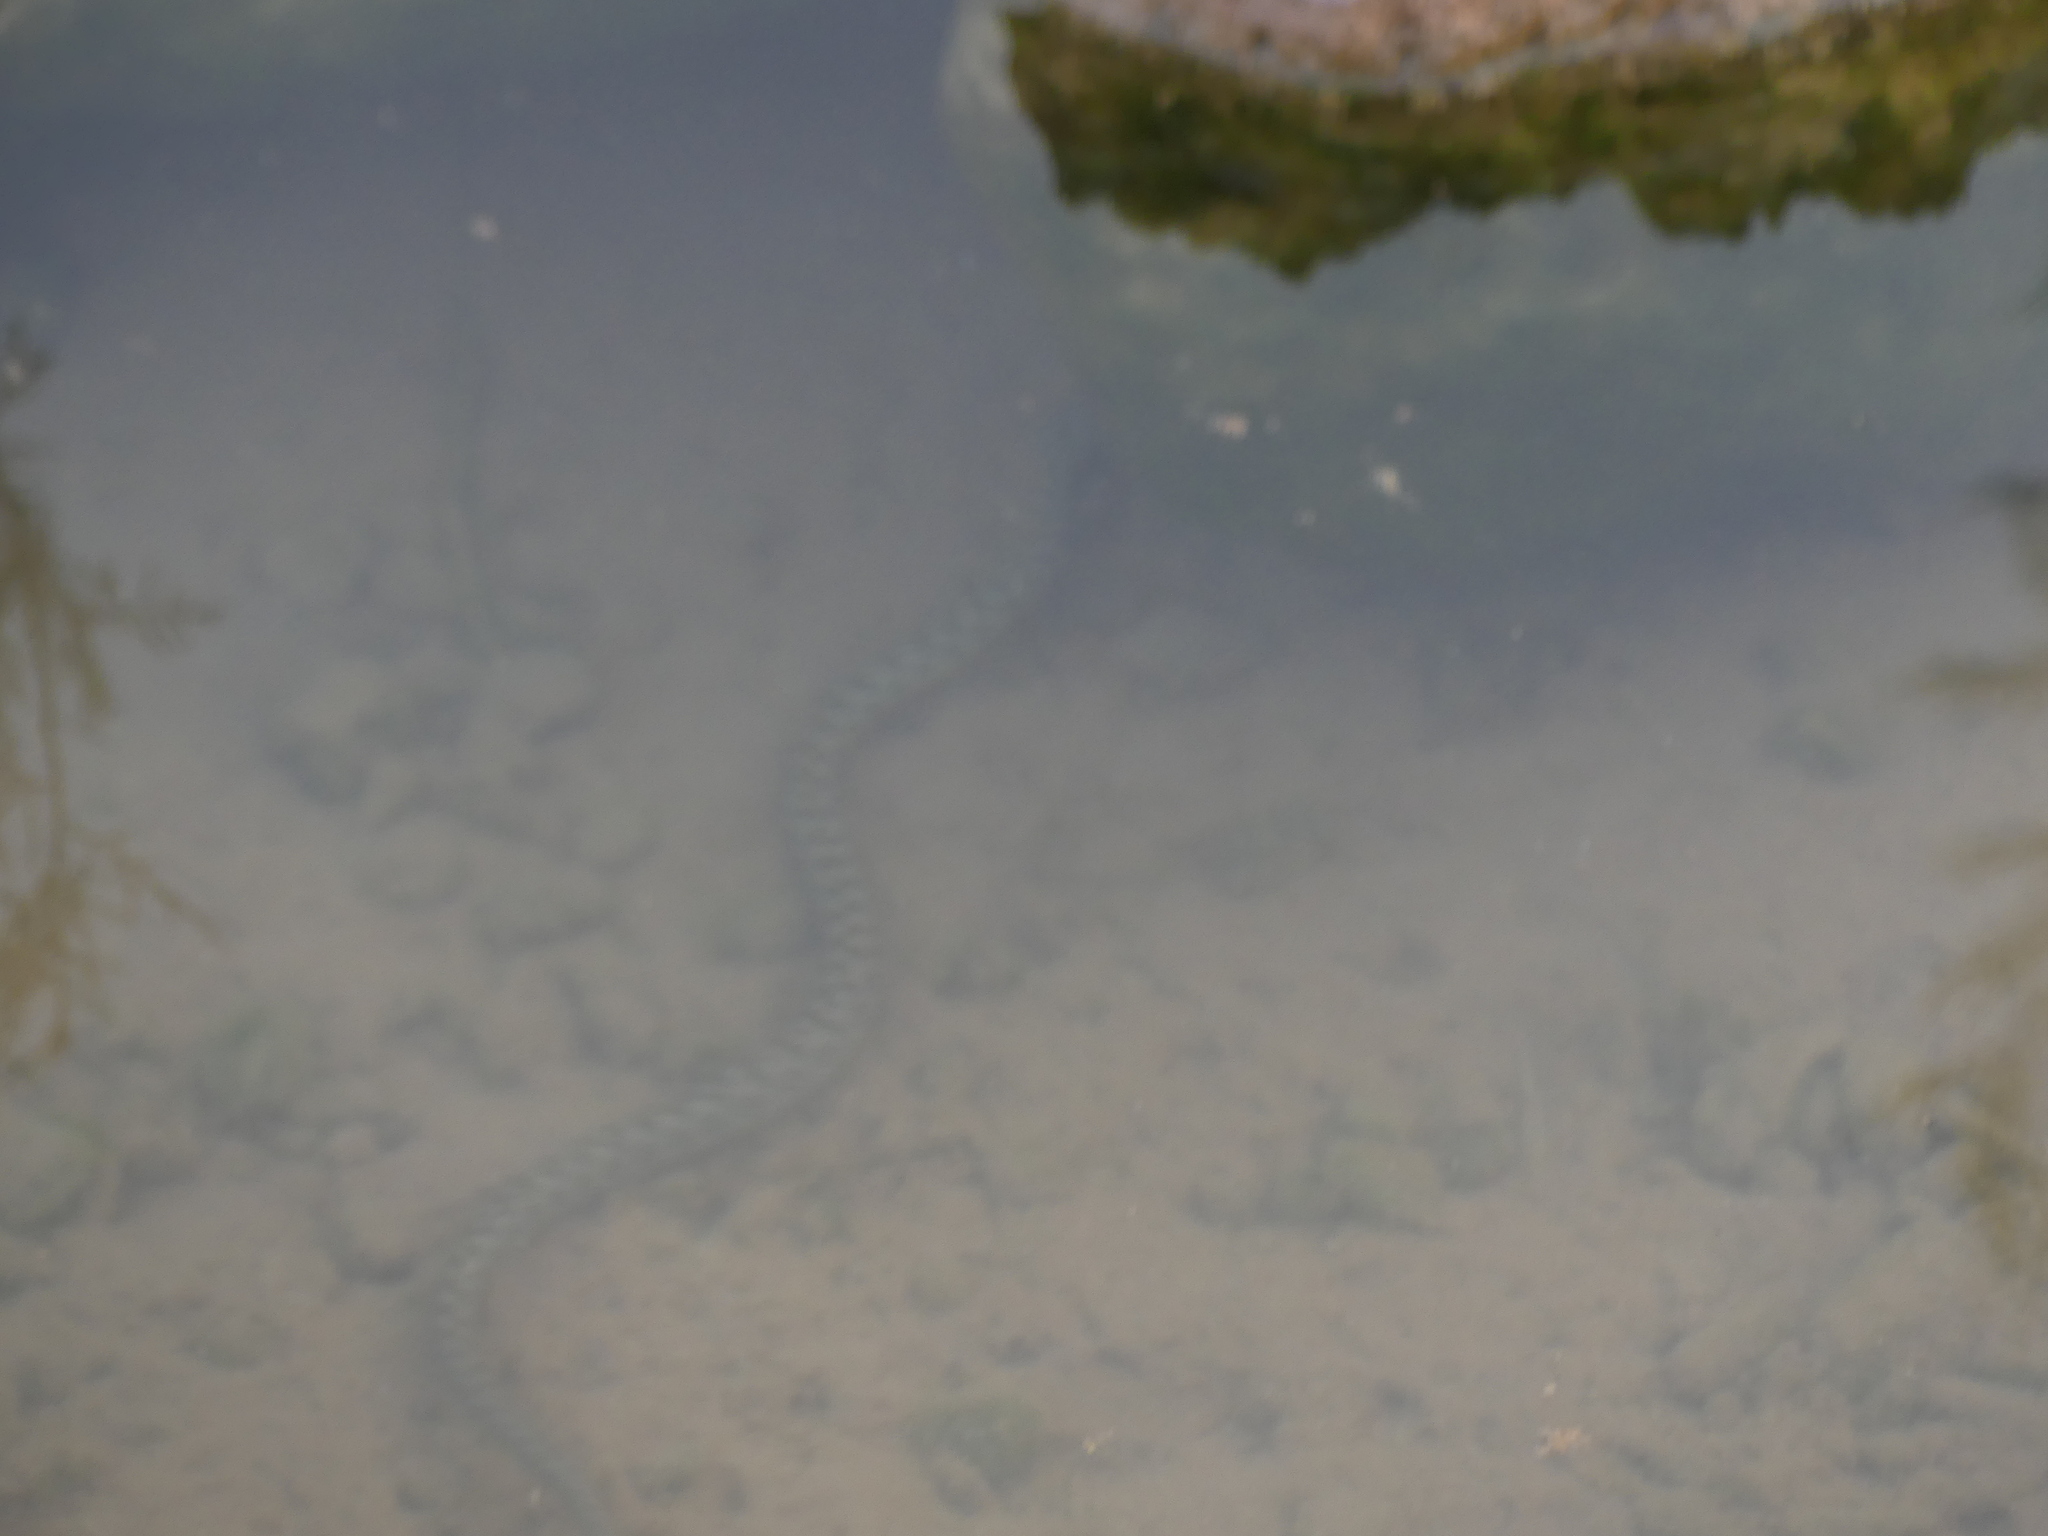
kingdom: Animalia
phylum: Chordata
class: Squamata
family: Colubridae
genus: Natrix
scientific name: Natrix maura
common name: Viperine water snake
